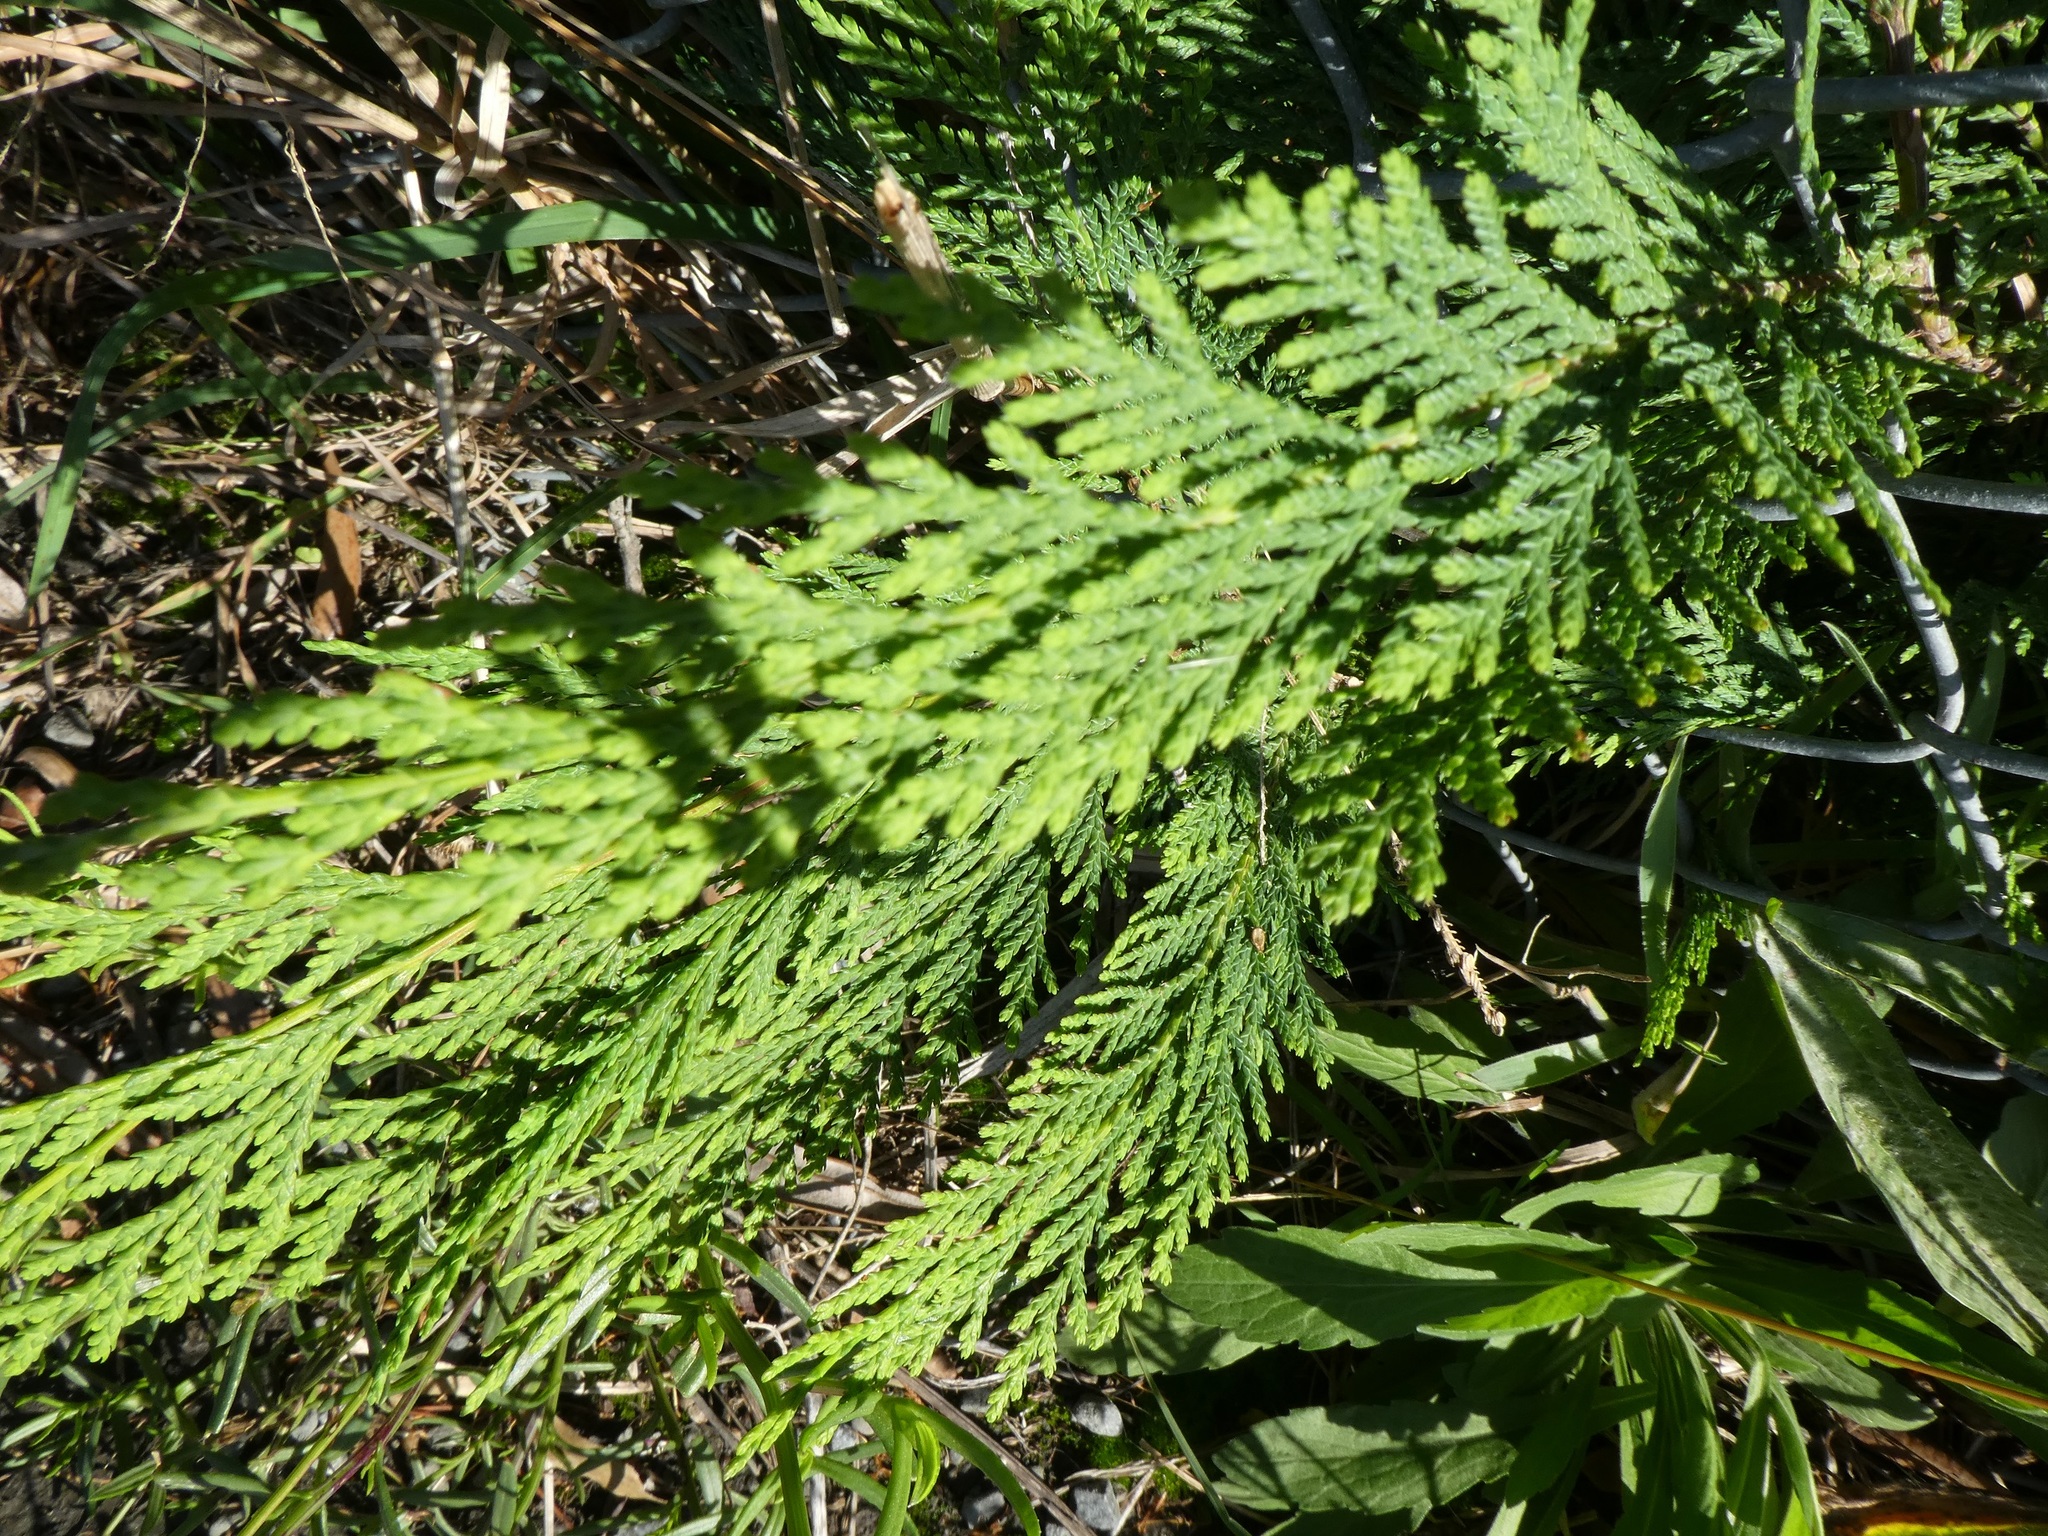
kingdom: Plantae
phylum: Tracheophyta
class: Pinopsida
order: Pinales
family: Cupressaceae
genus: Chamaecyparis
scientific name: Chamaecyparis lawsoniana
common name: Lawson's cypress
